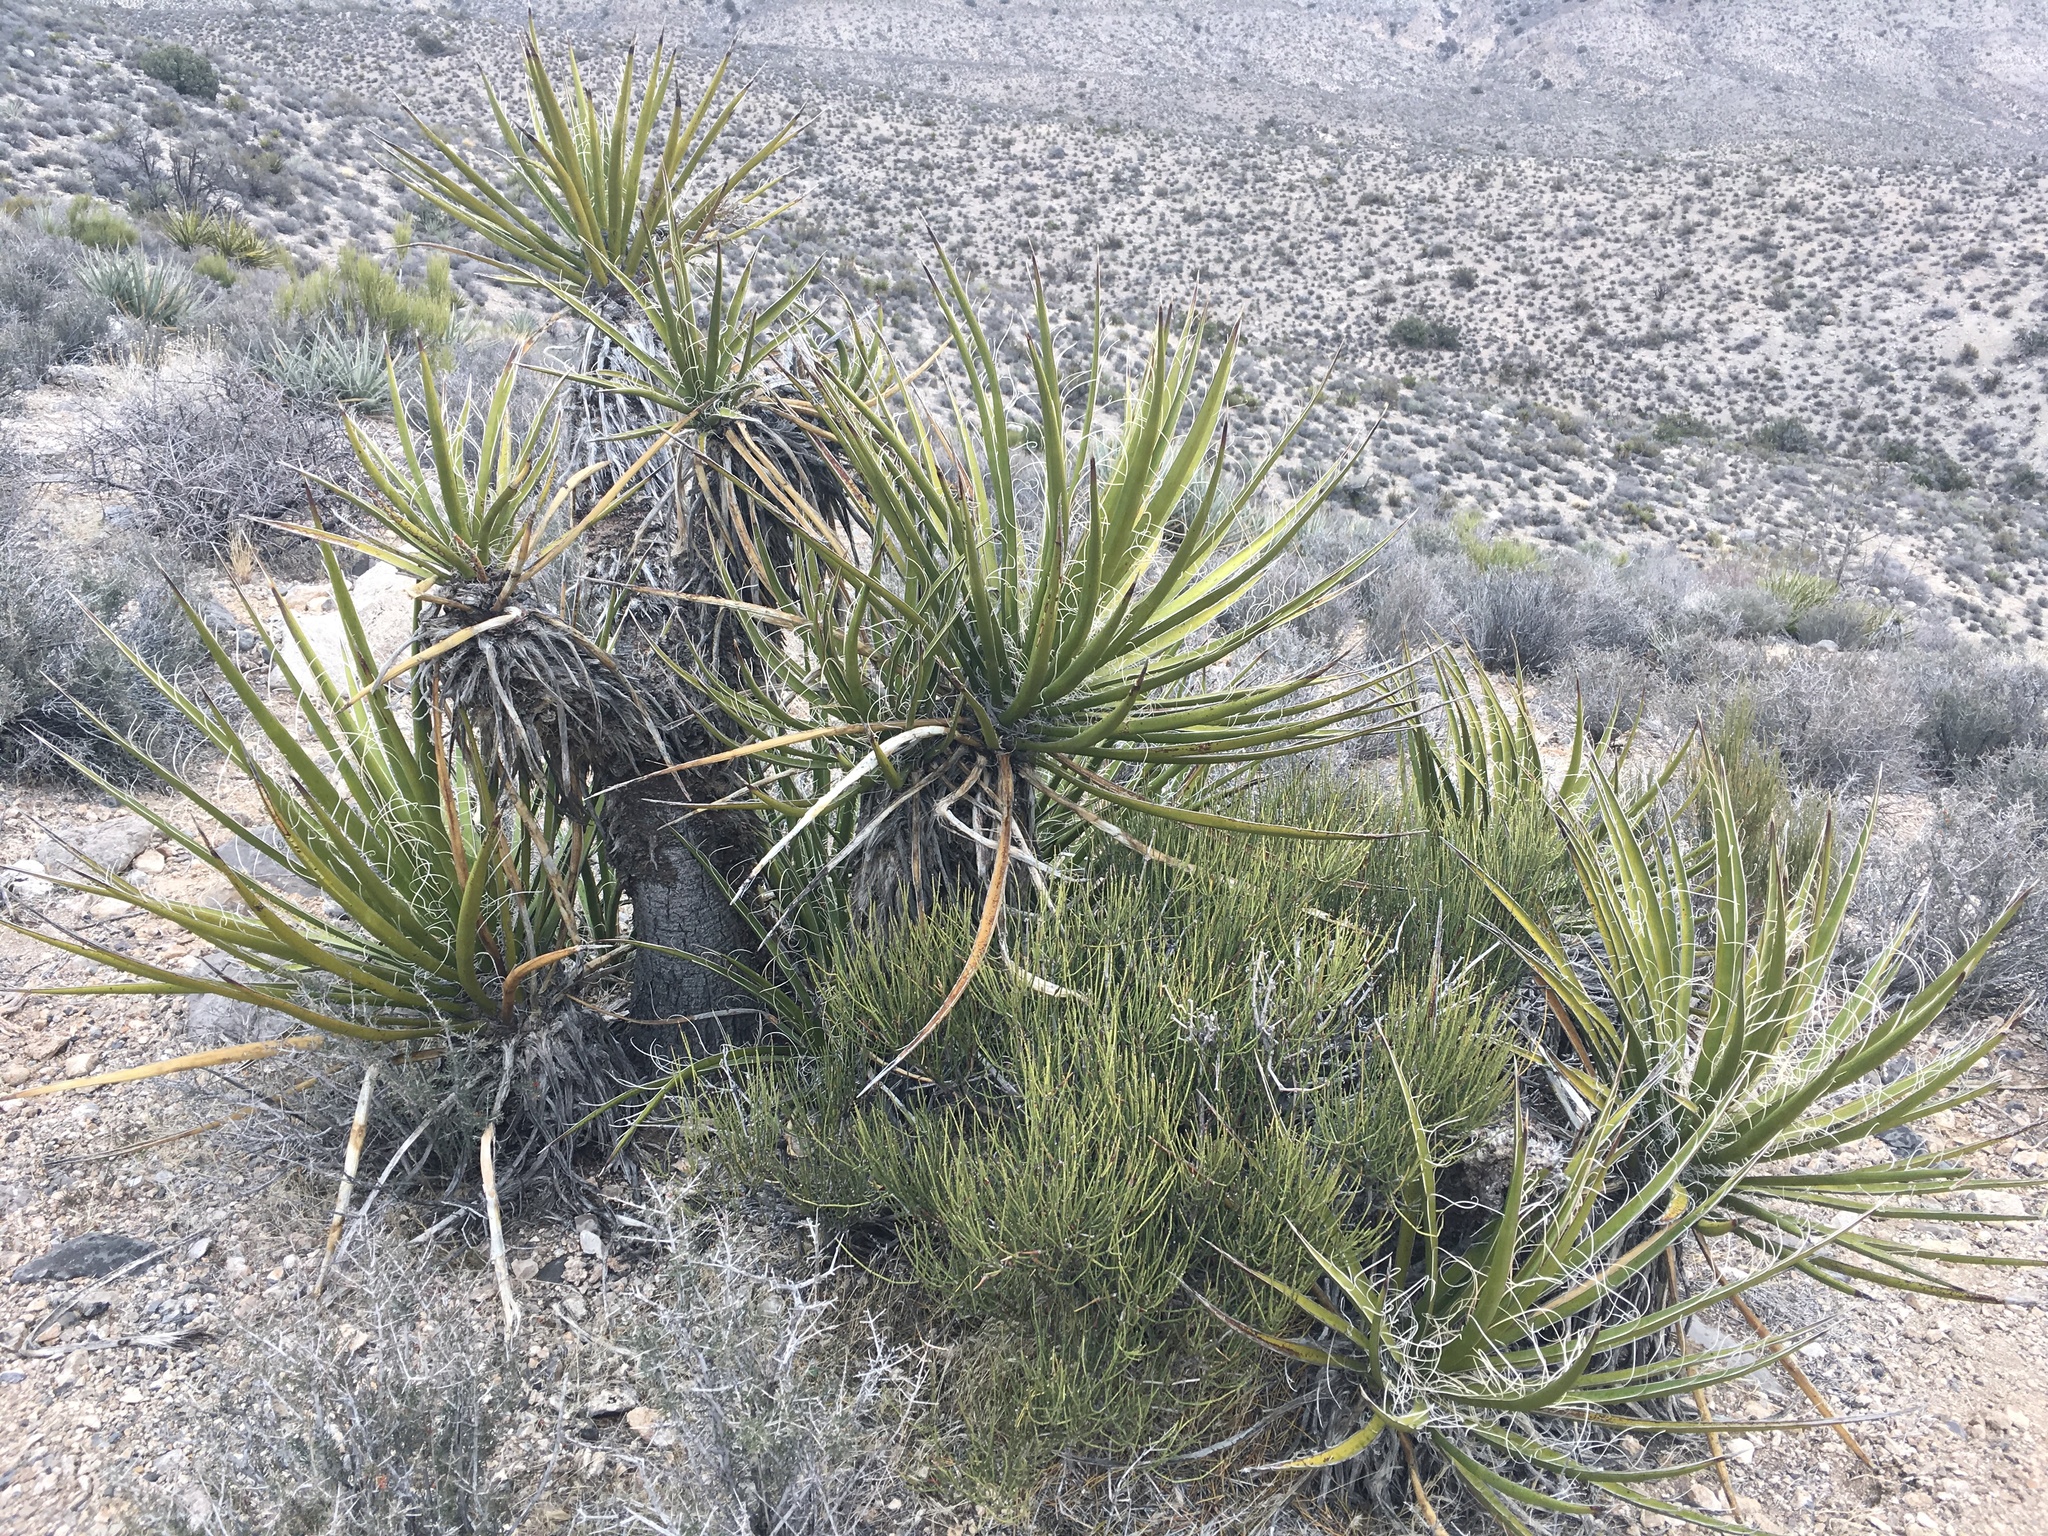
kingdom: Plantae
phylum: Tracheophyta
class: Liliopsida
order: Asparagales
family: Asparagaceae
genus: Yucca
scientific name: Yucca schidigera
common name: Mojave yucca
